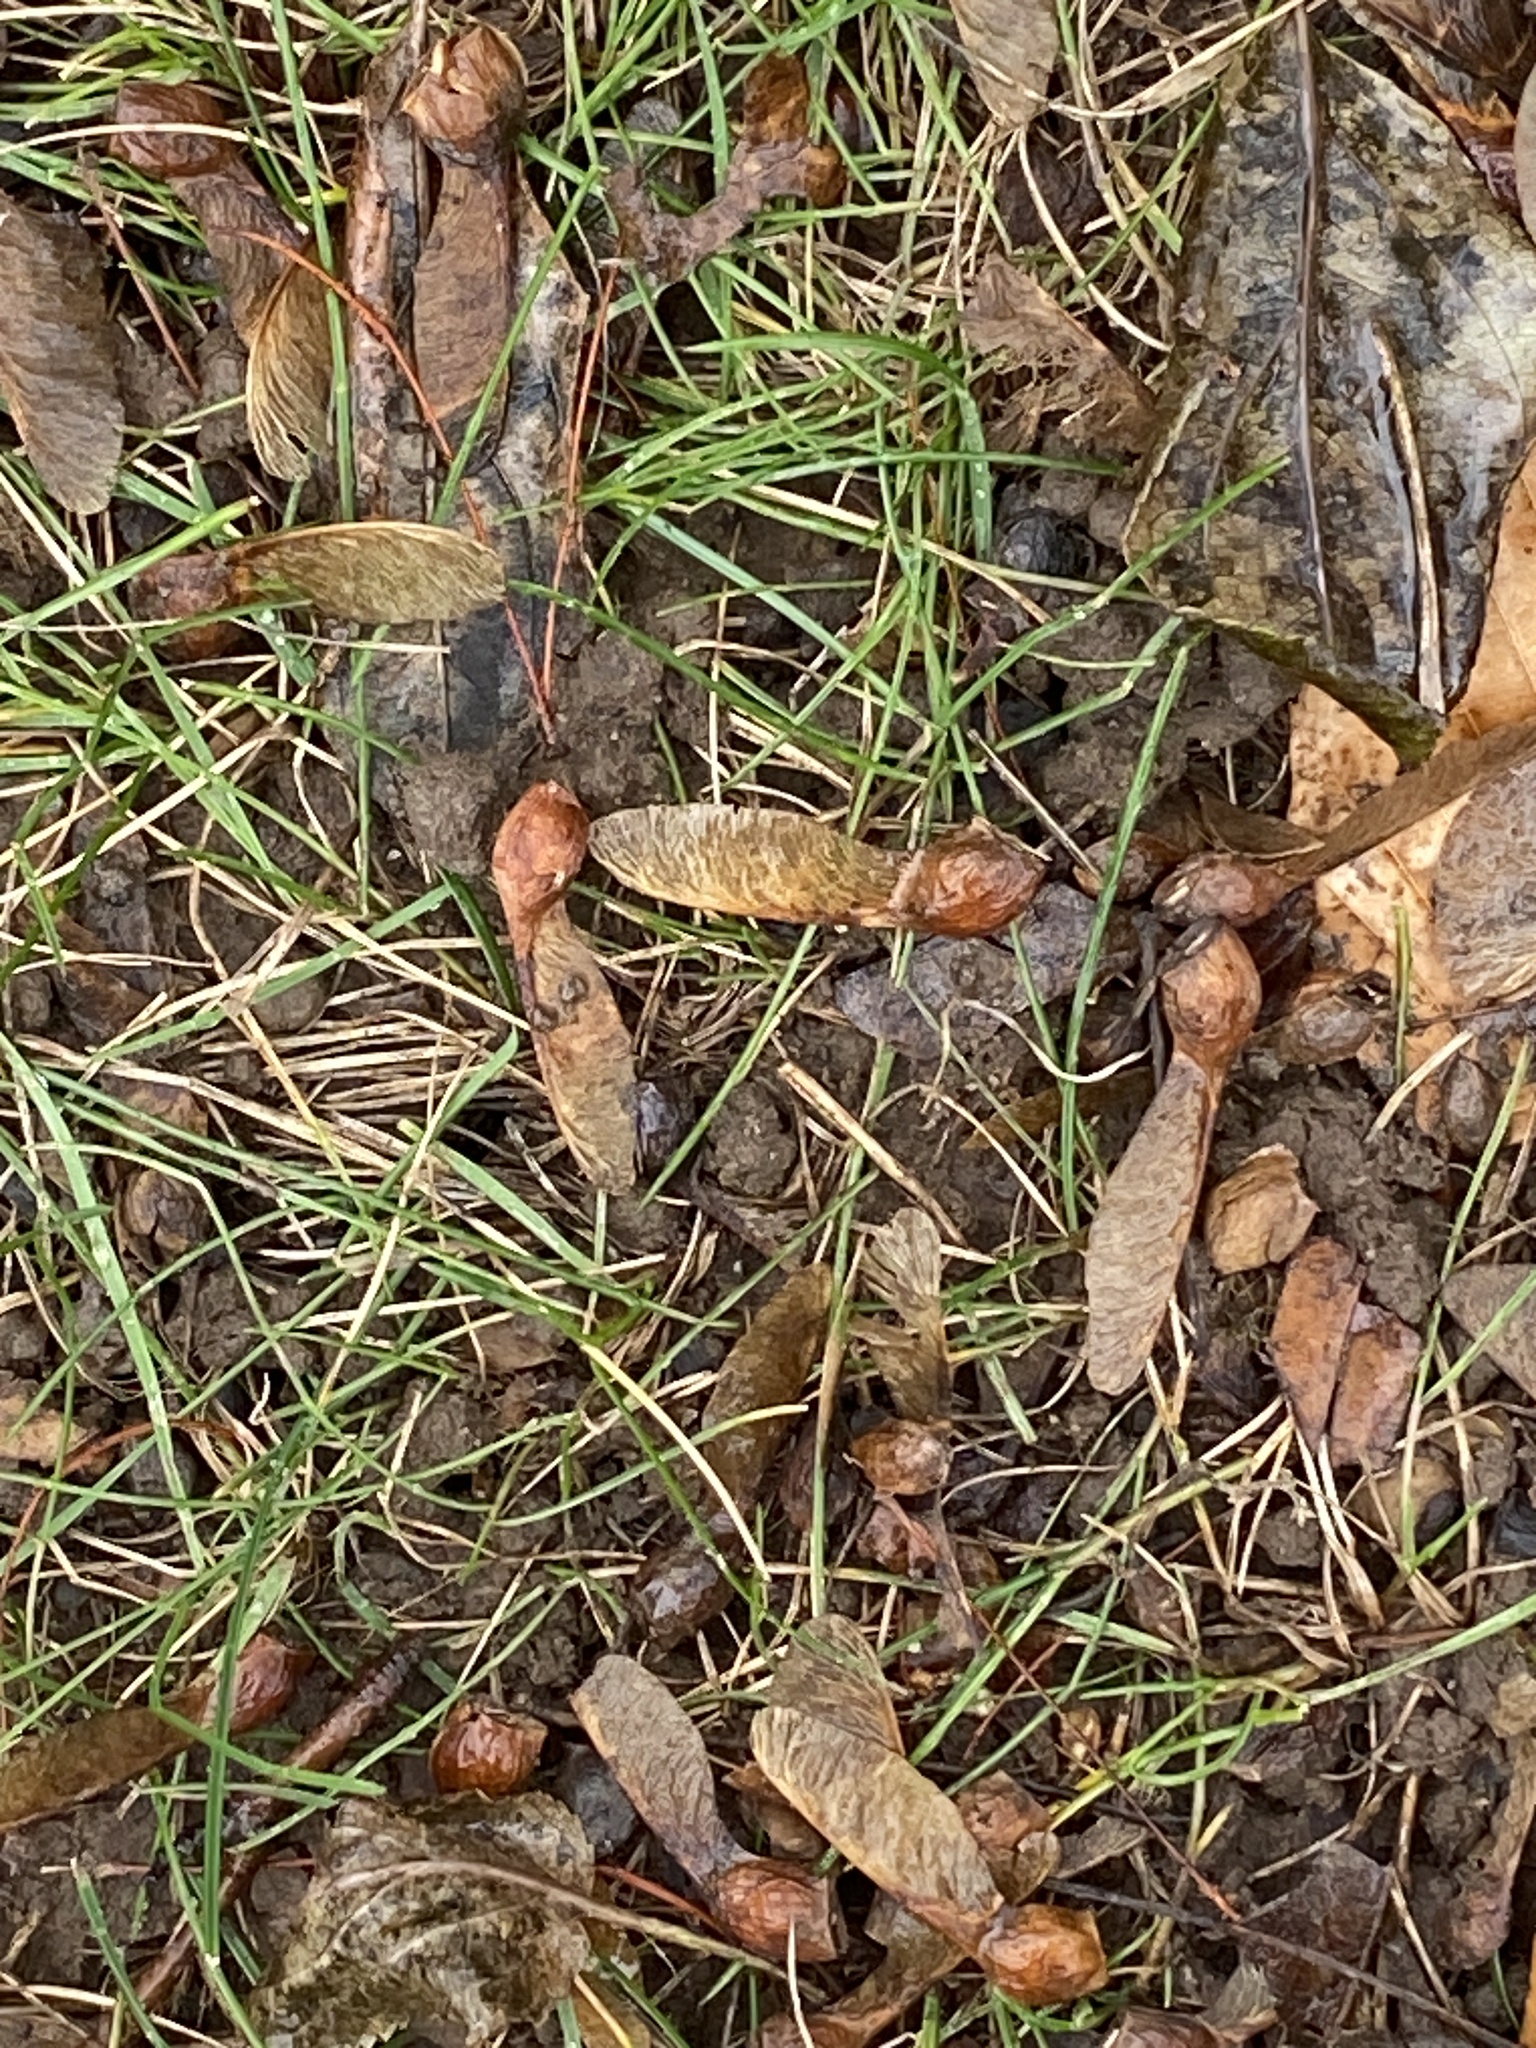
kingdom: Plantae
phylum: Tracheophyta
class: Magnoliopsida
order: Sapindales
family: Sapindaceae
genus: Acer
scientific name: Acer saccharum
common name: Sugar maple
